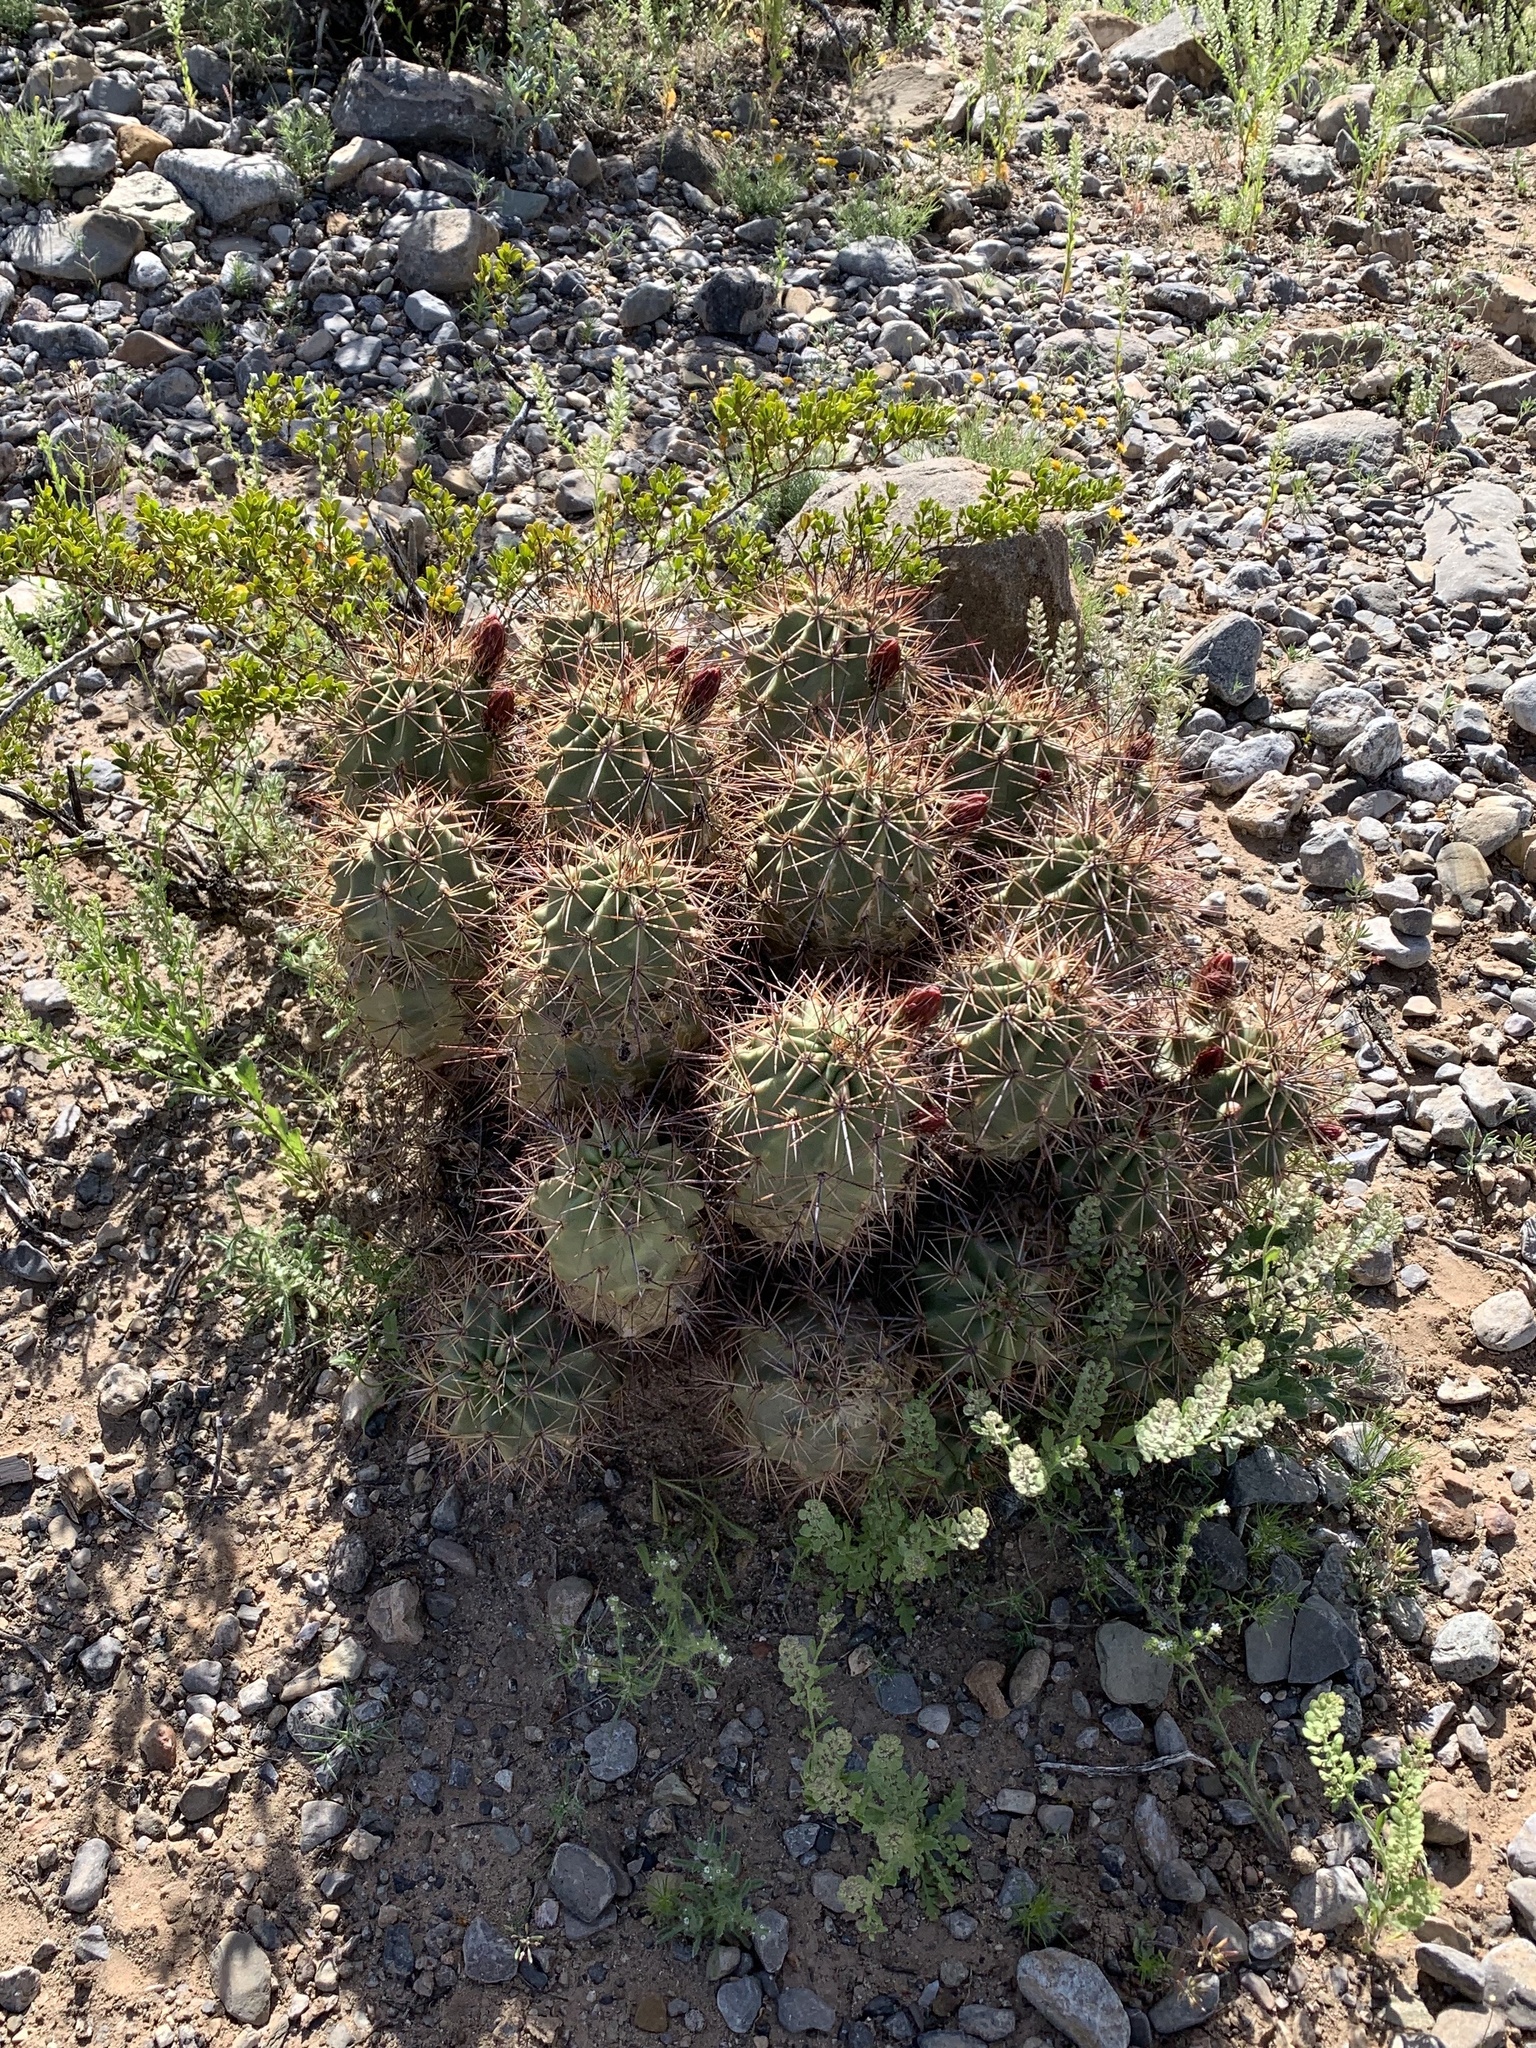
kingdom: Plantae
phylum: Tracheophyta
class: Magnoliopsida
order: Caryophyllales
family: Cactaceae
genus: Echinocereus
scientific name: Echinocereus coccineus
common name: Scarlet hedgehog cactus
